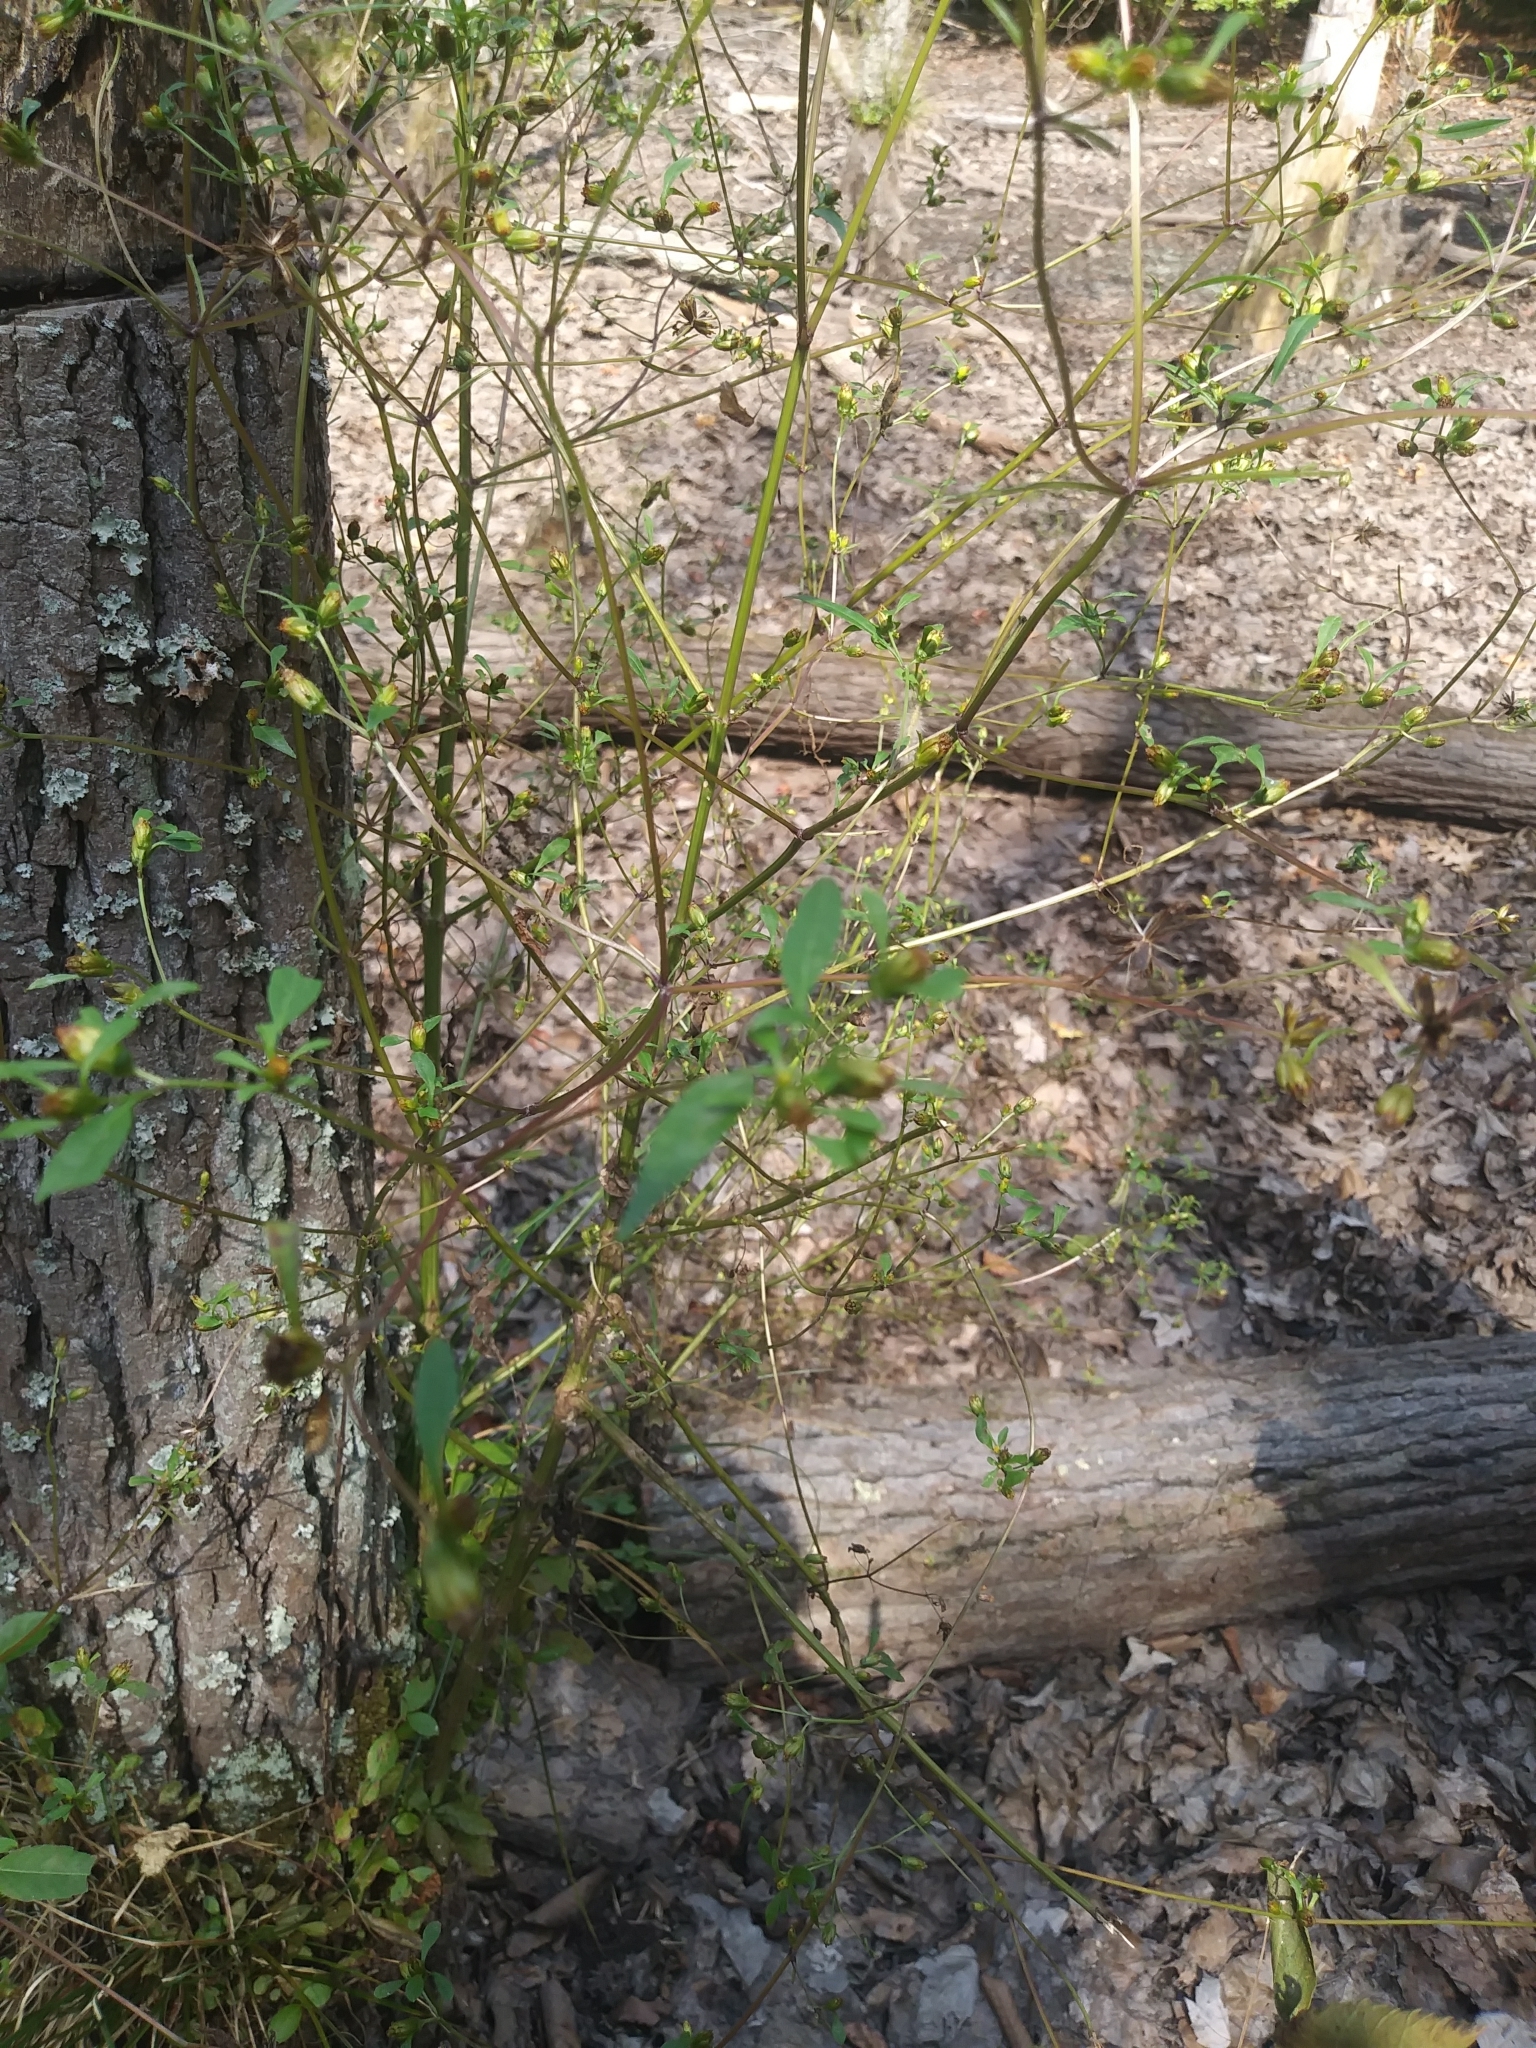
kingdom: Plantae
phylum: Tracheophyta
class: Magnoliopsida
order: Asterales
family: Asteraceae
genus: Bidens
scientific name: Bidens frondosa
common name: Beggarticks
